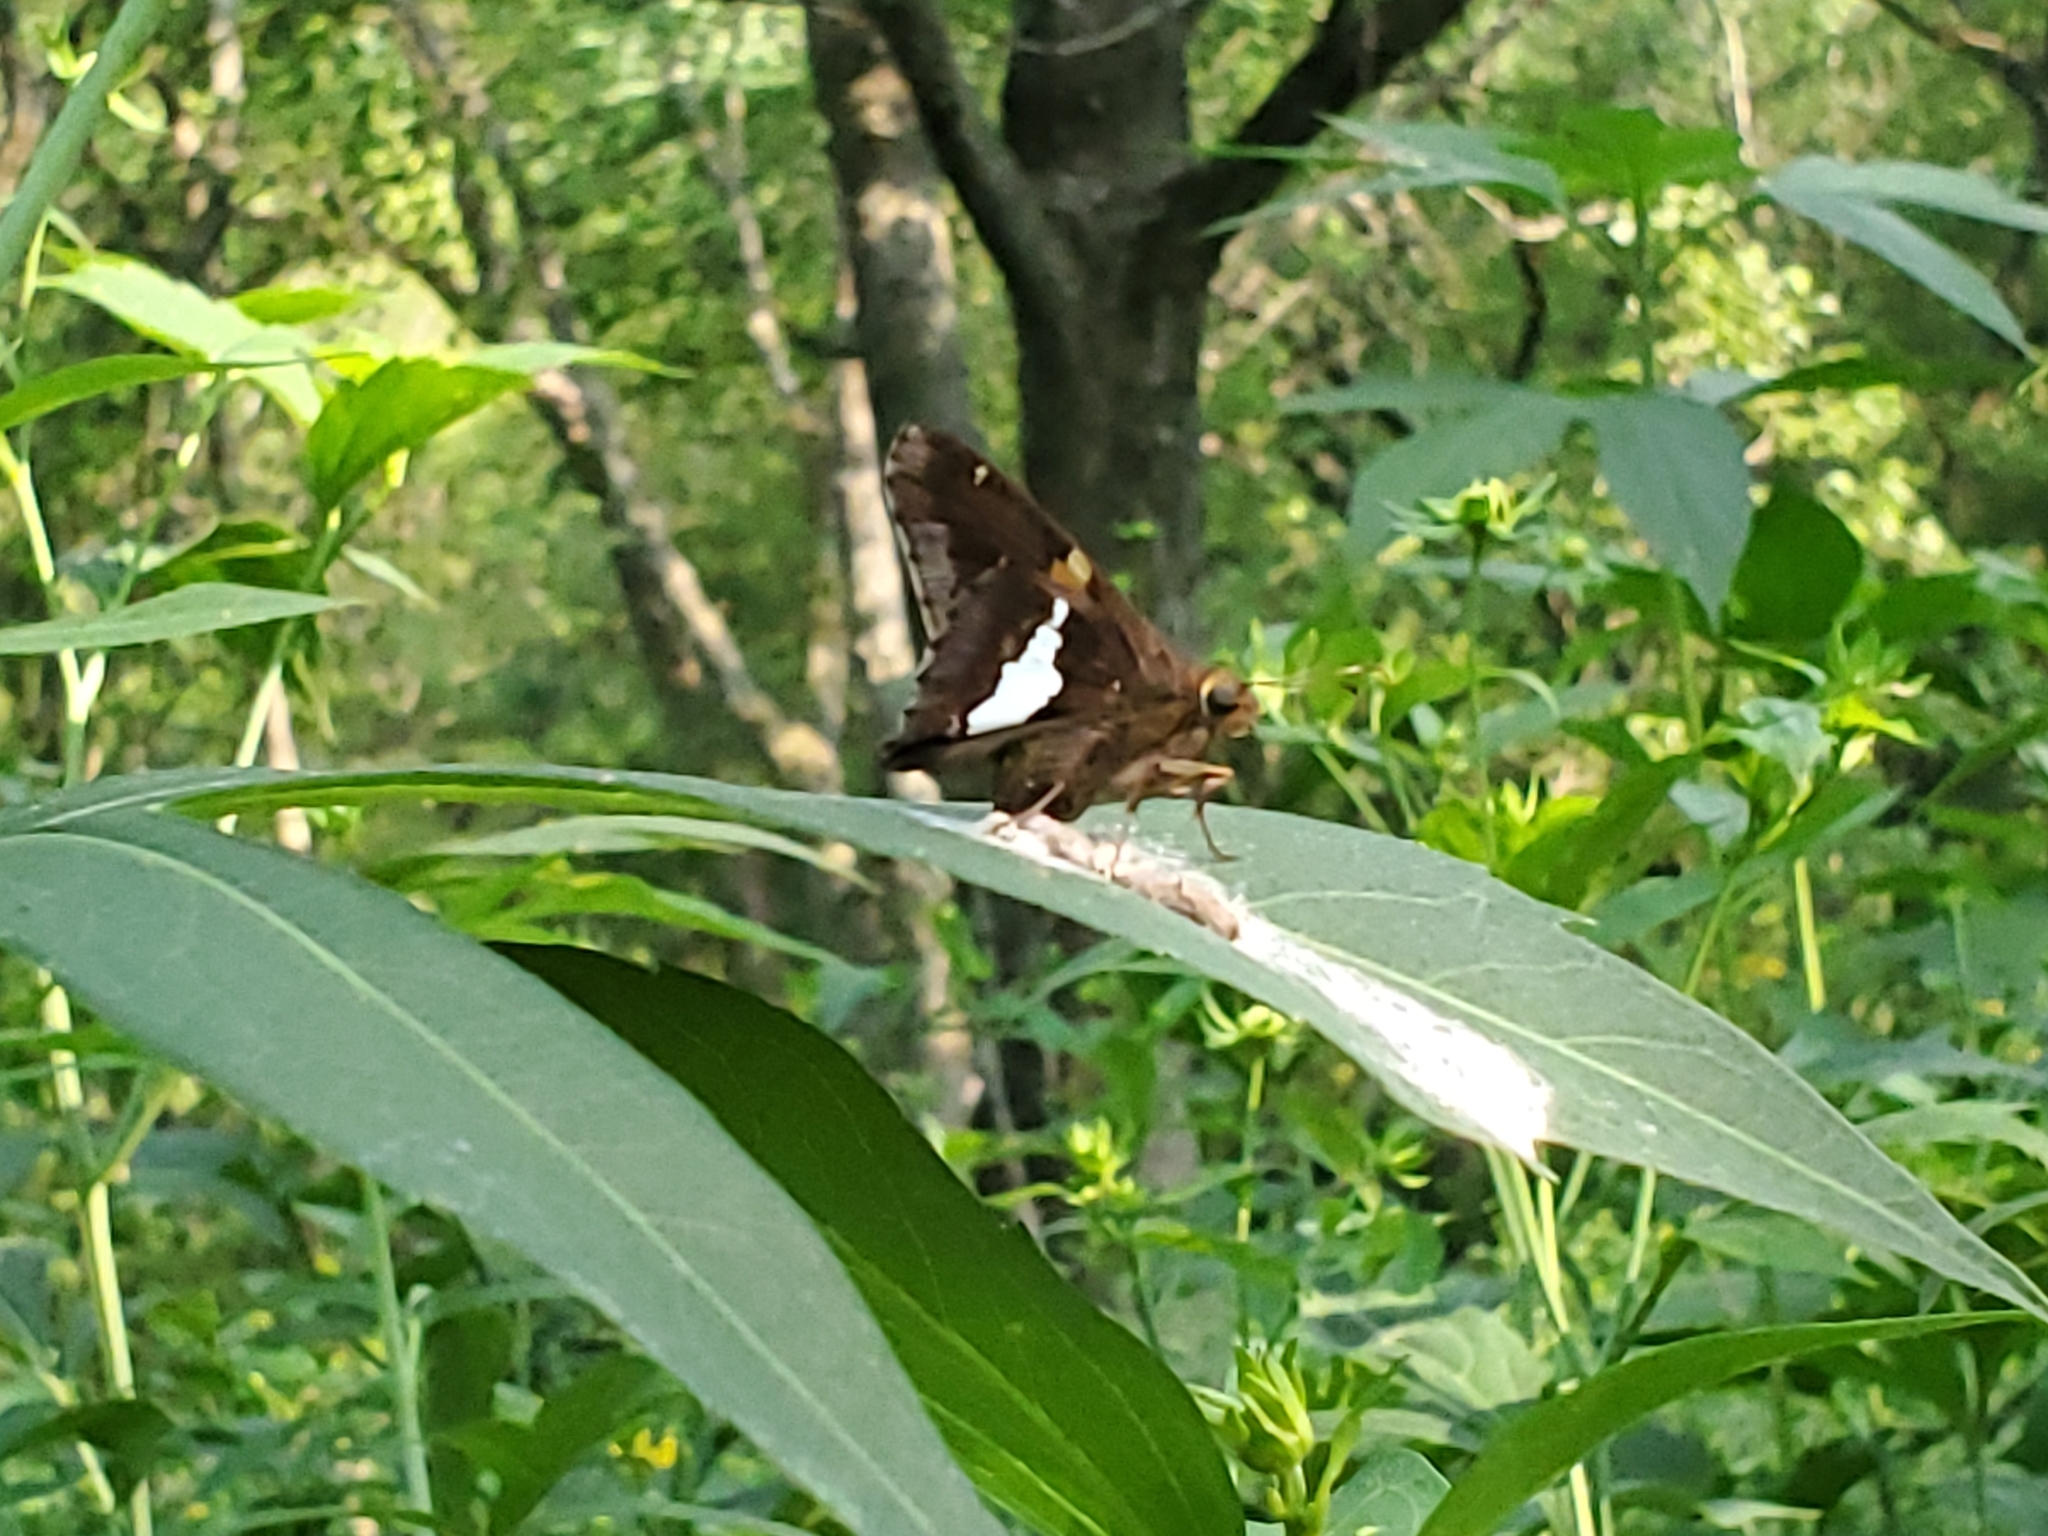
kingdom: Animalia
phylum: Arthropoda
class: Insecta
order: Lepidoptera
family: Hesperiidae
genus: Epargyreus
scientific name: Epargyreus clarus
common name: Silver-spotted skipper
